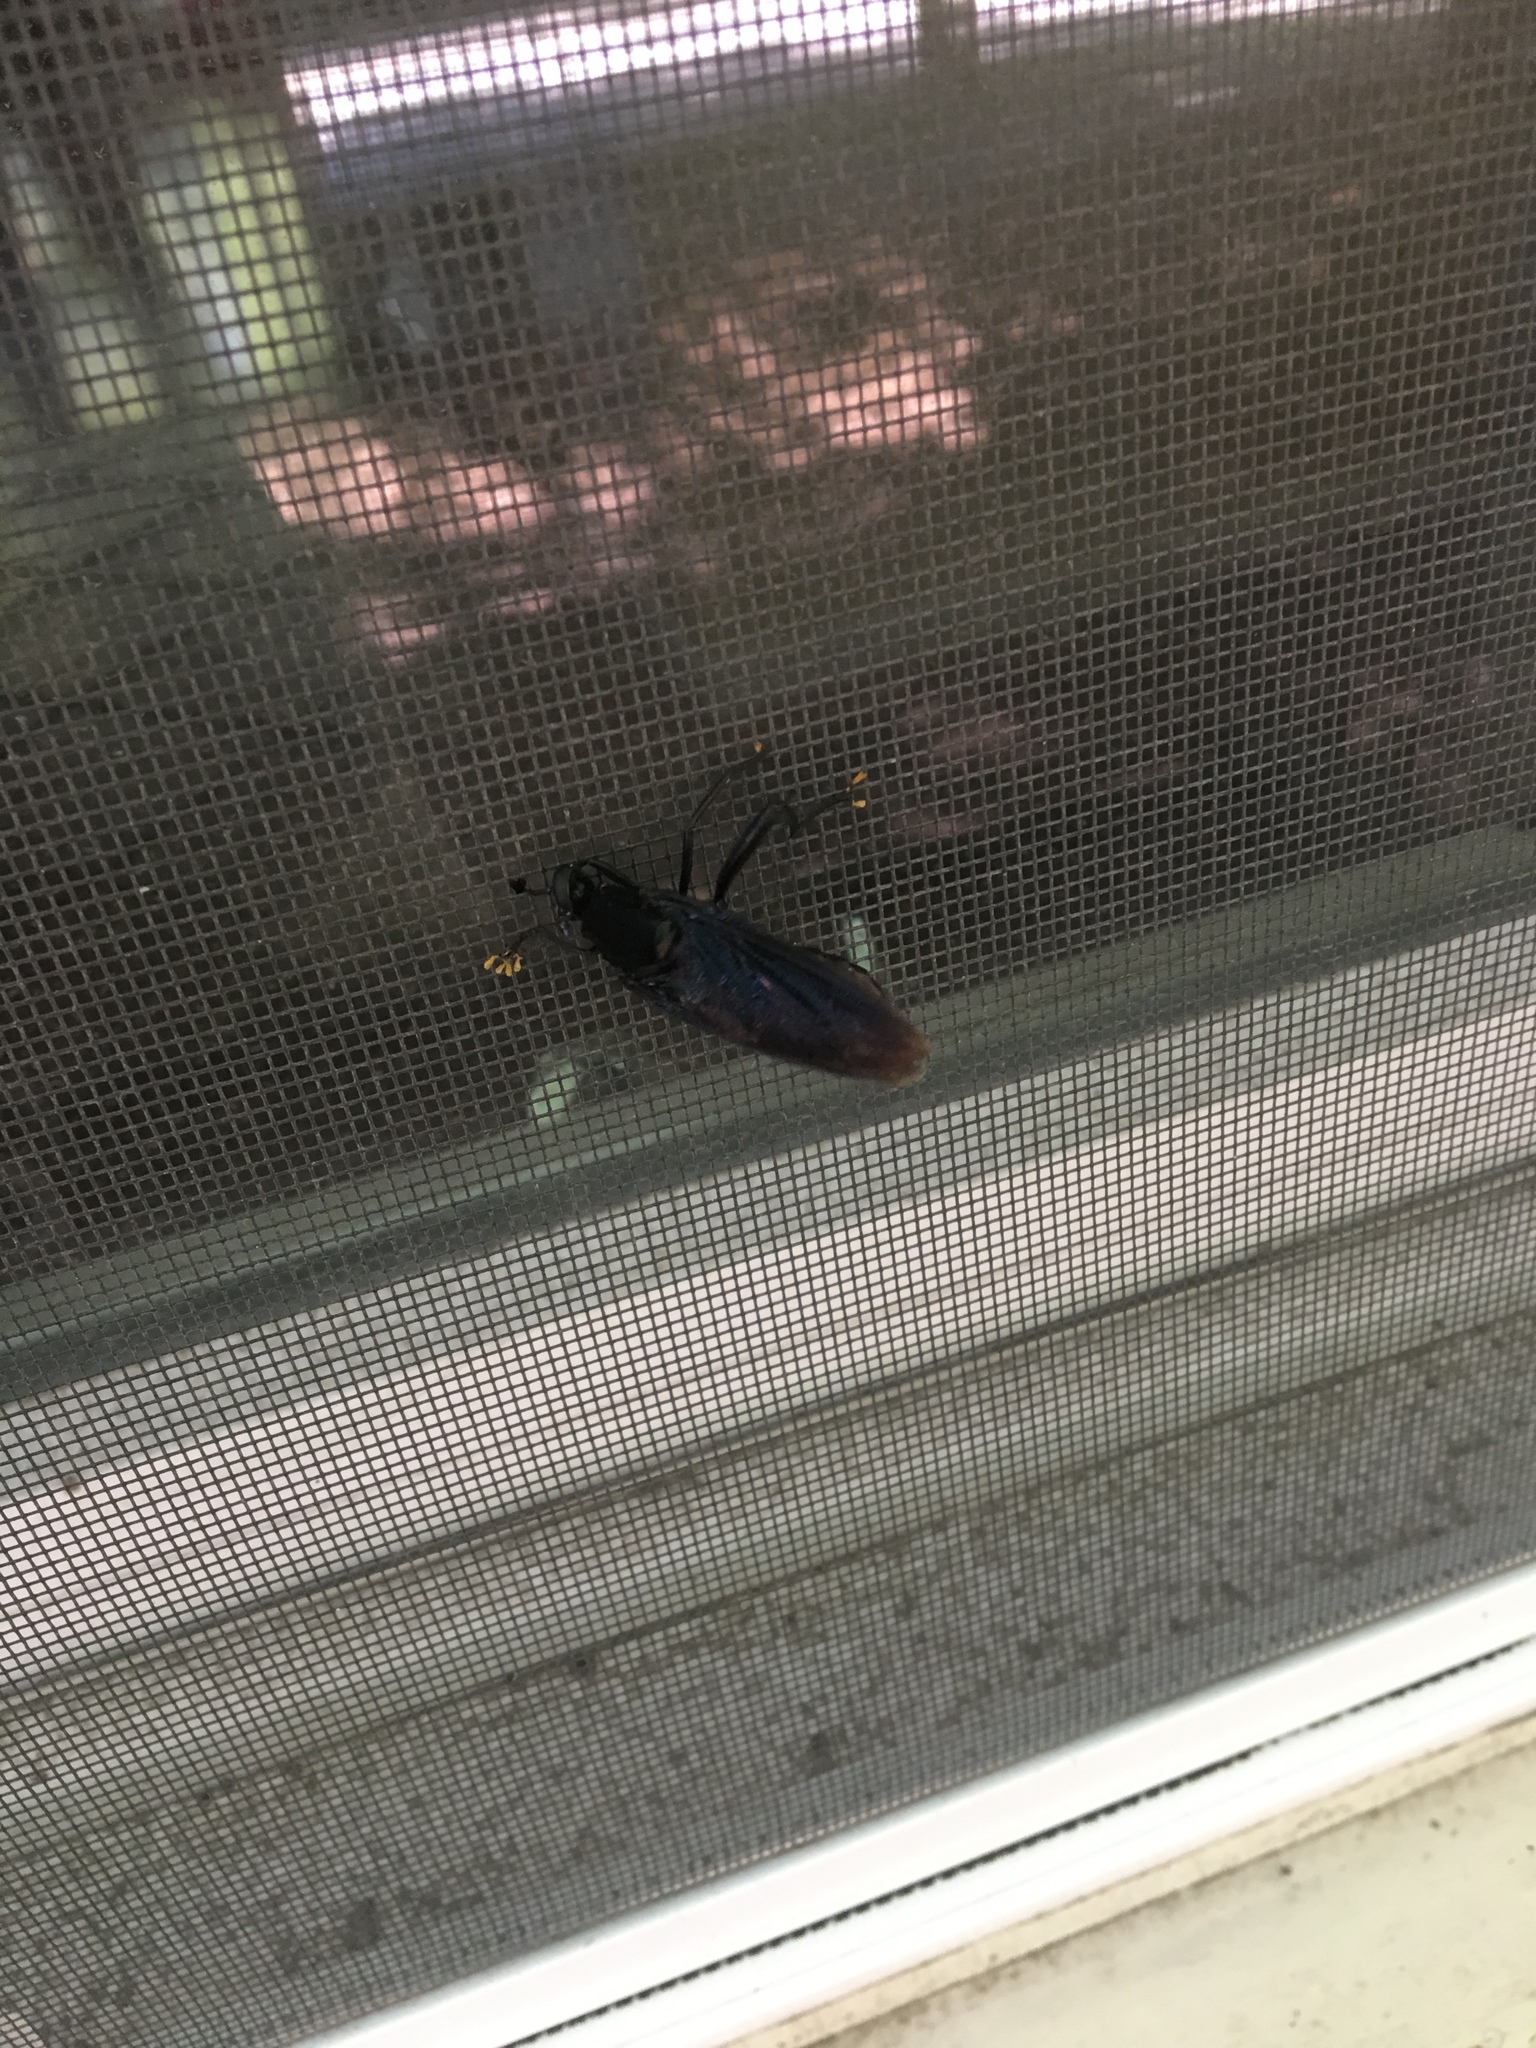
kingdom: Animalia
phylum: Arthropoda
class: Insecta
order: Diptera
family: Mydidae
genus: Mydas
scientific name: Mydas clavatus
